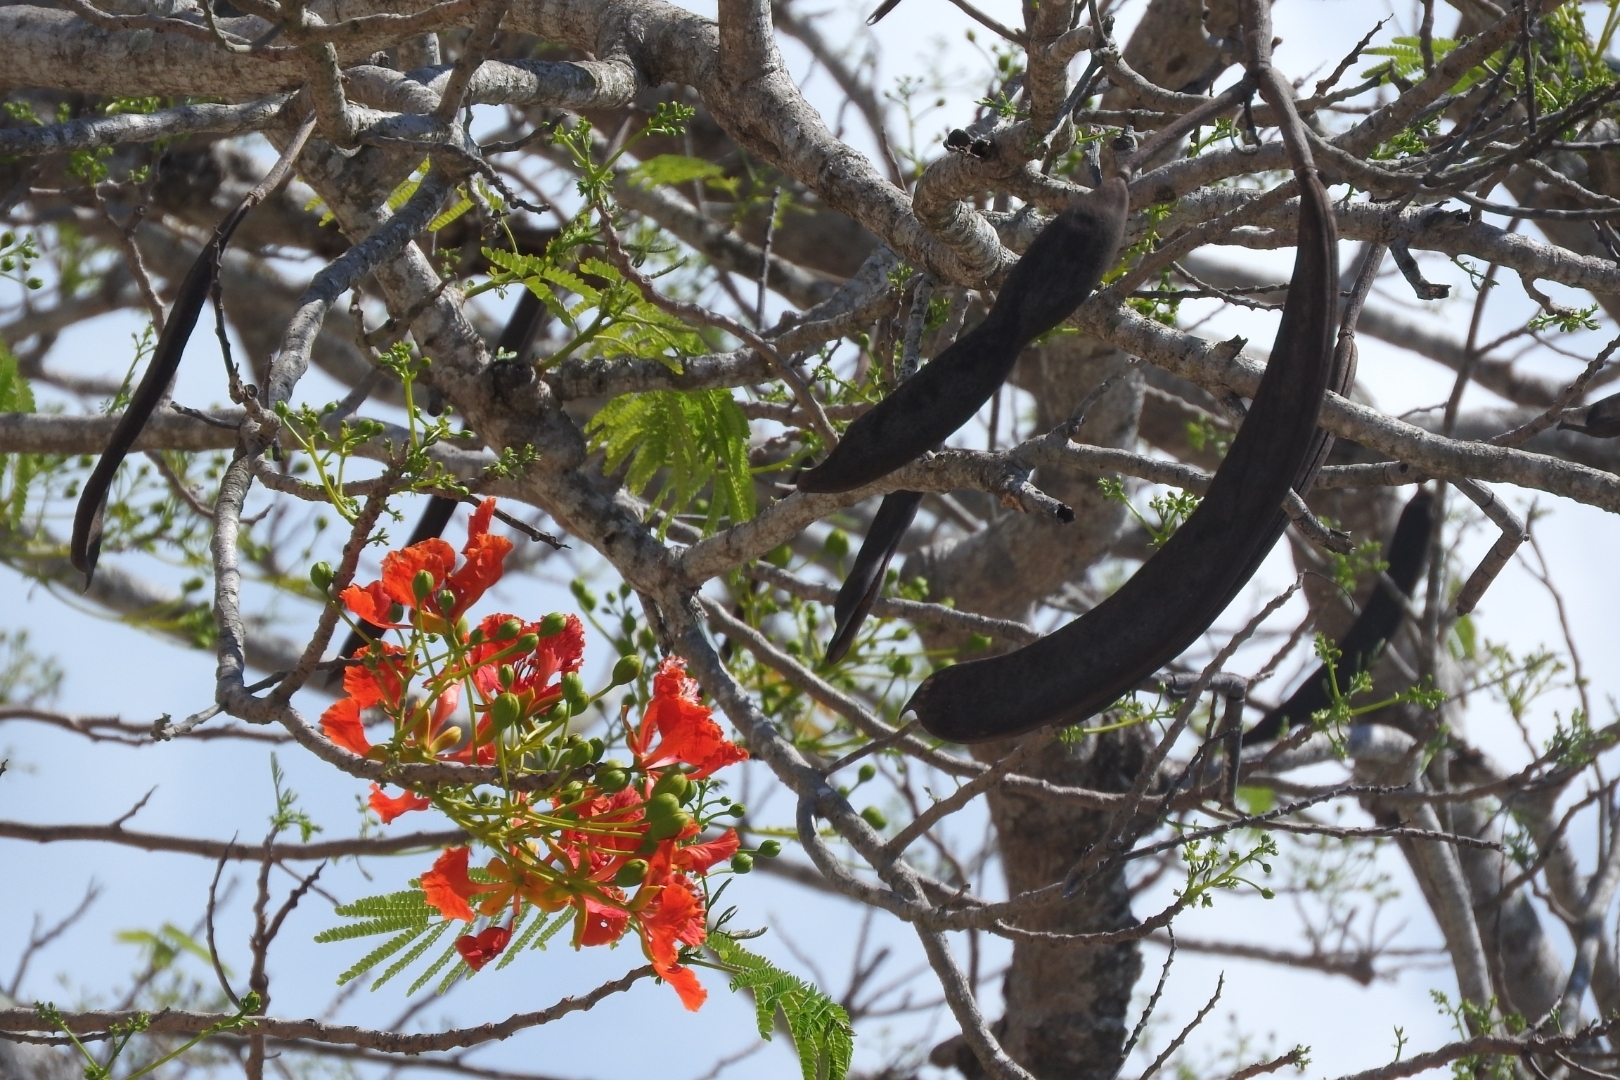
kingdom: Plantae
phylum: Tracheophyta
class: Magnoliopsida
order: Fabales
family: Fabaceae
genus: Delonix
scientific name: Delonix regia
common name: Royal poinciana
